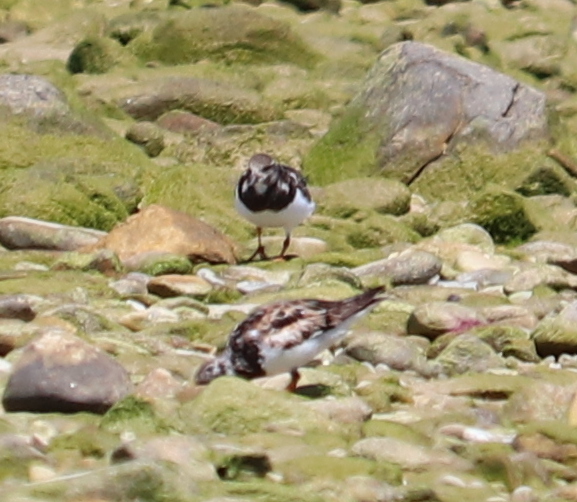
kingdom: Animalia
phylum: Chordata
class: Aves
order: Charadriiformes
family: Scolopacidae
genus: Arenaria
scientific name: Arenaria interpres
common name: Ruddy turnstone
